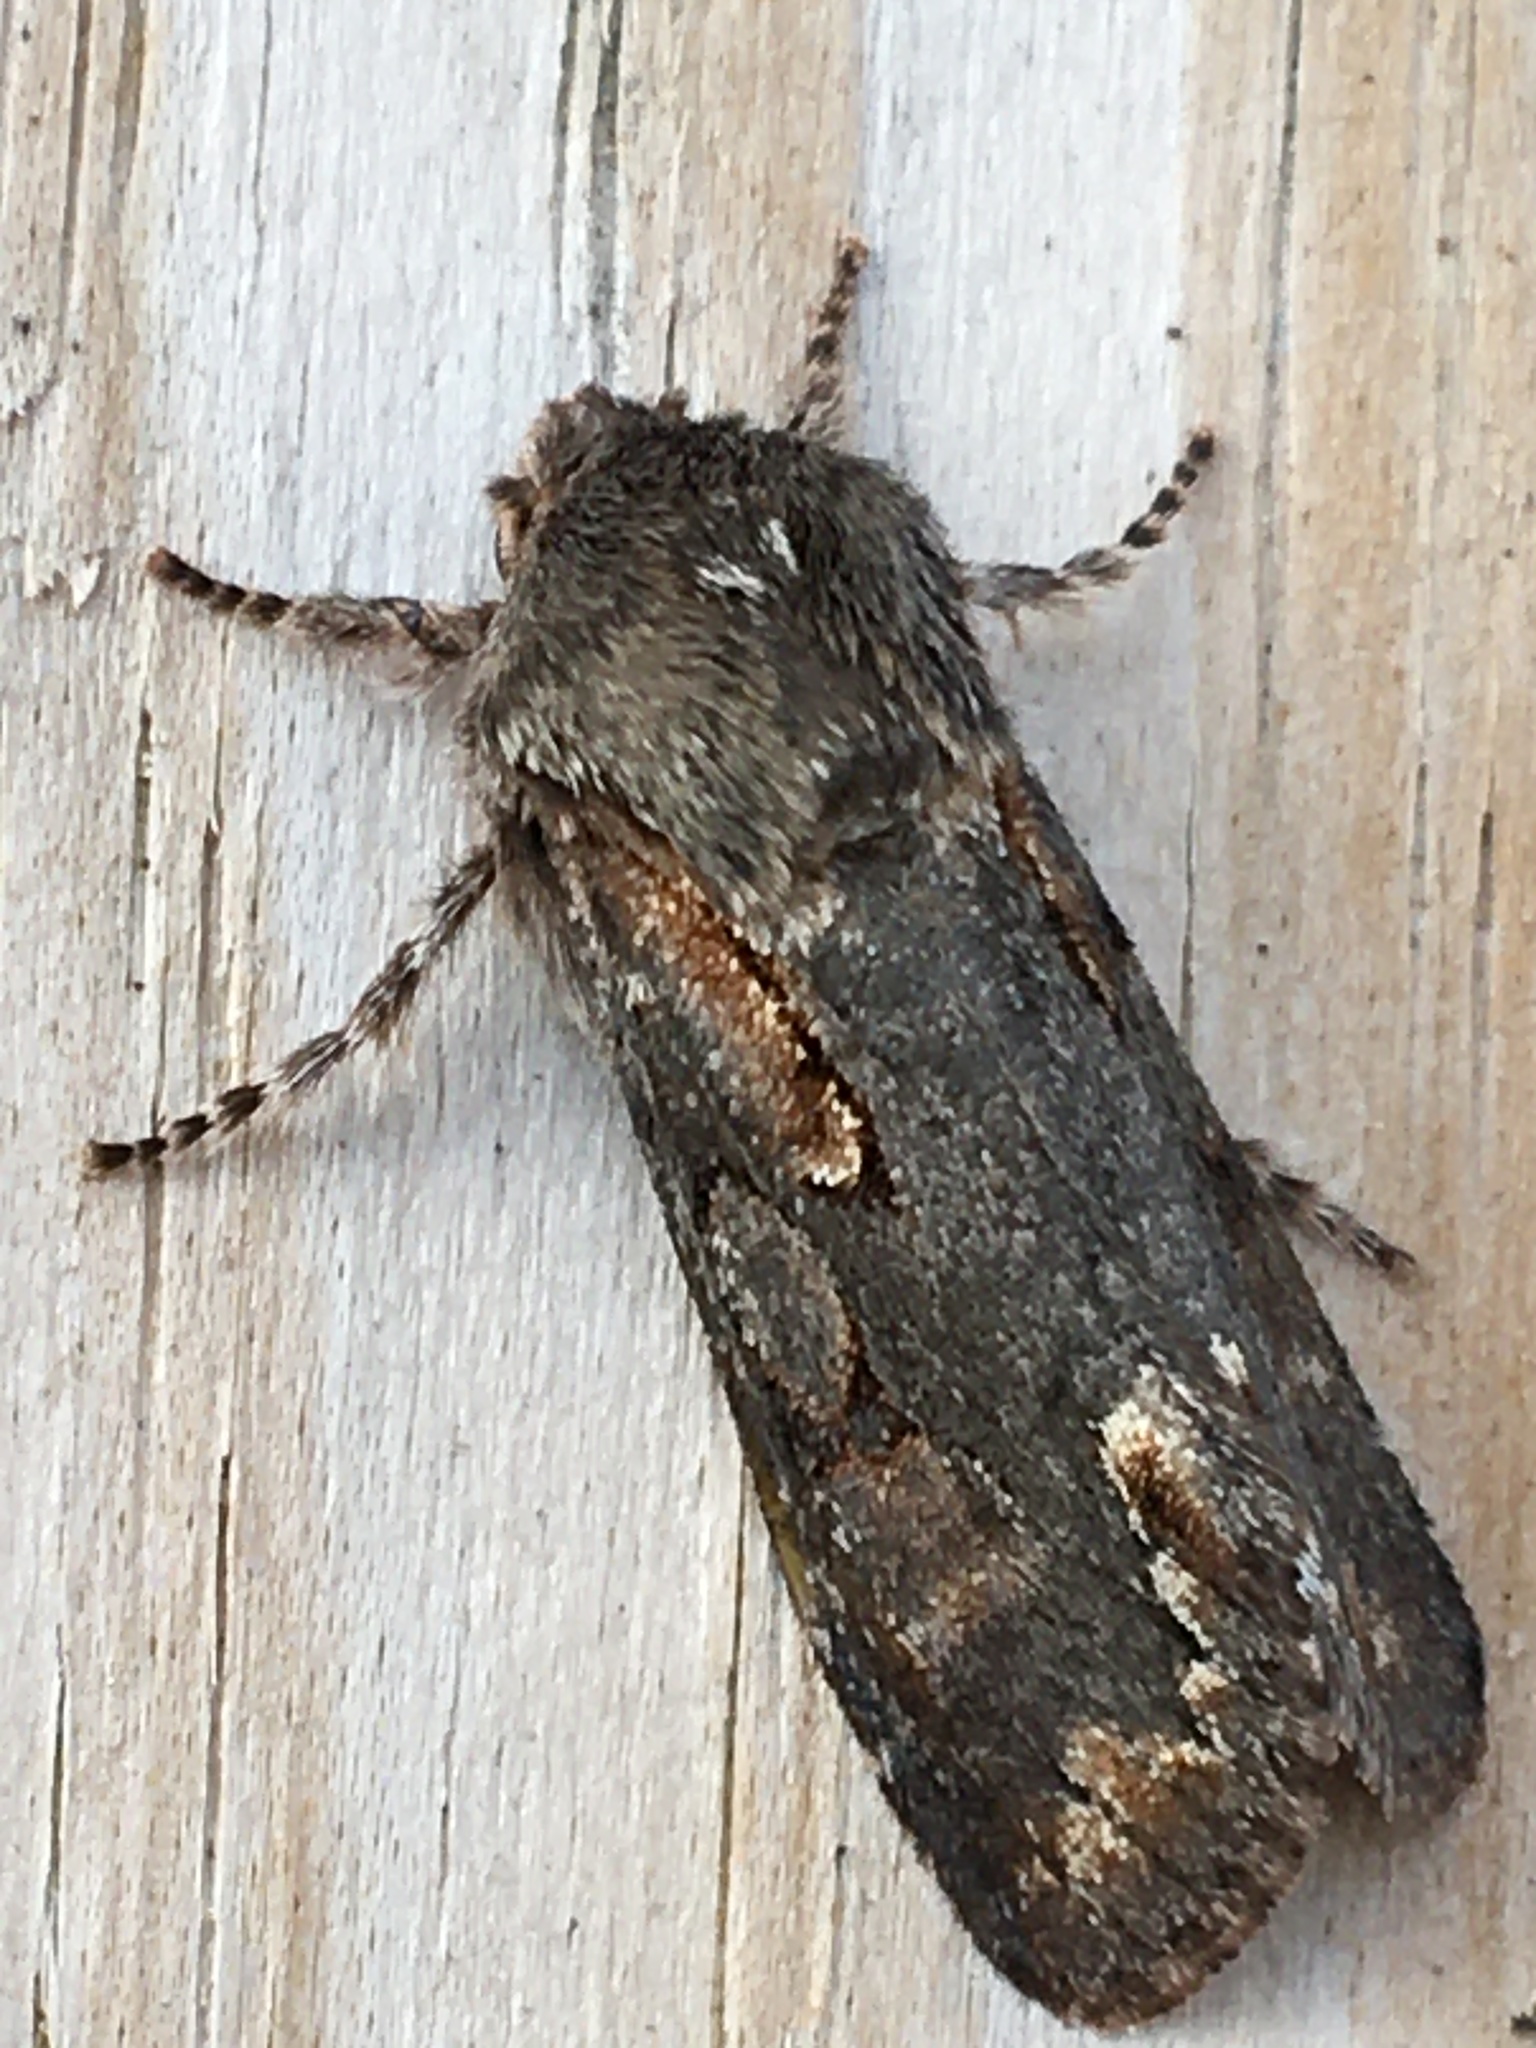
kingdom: Animalia
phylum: Arthropoda
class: Insecta
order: Lepidoptera
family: Noctuidae
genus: Psaphida
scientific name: Psaphida electilis
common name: Chosen sallow
